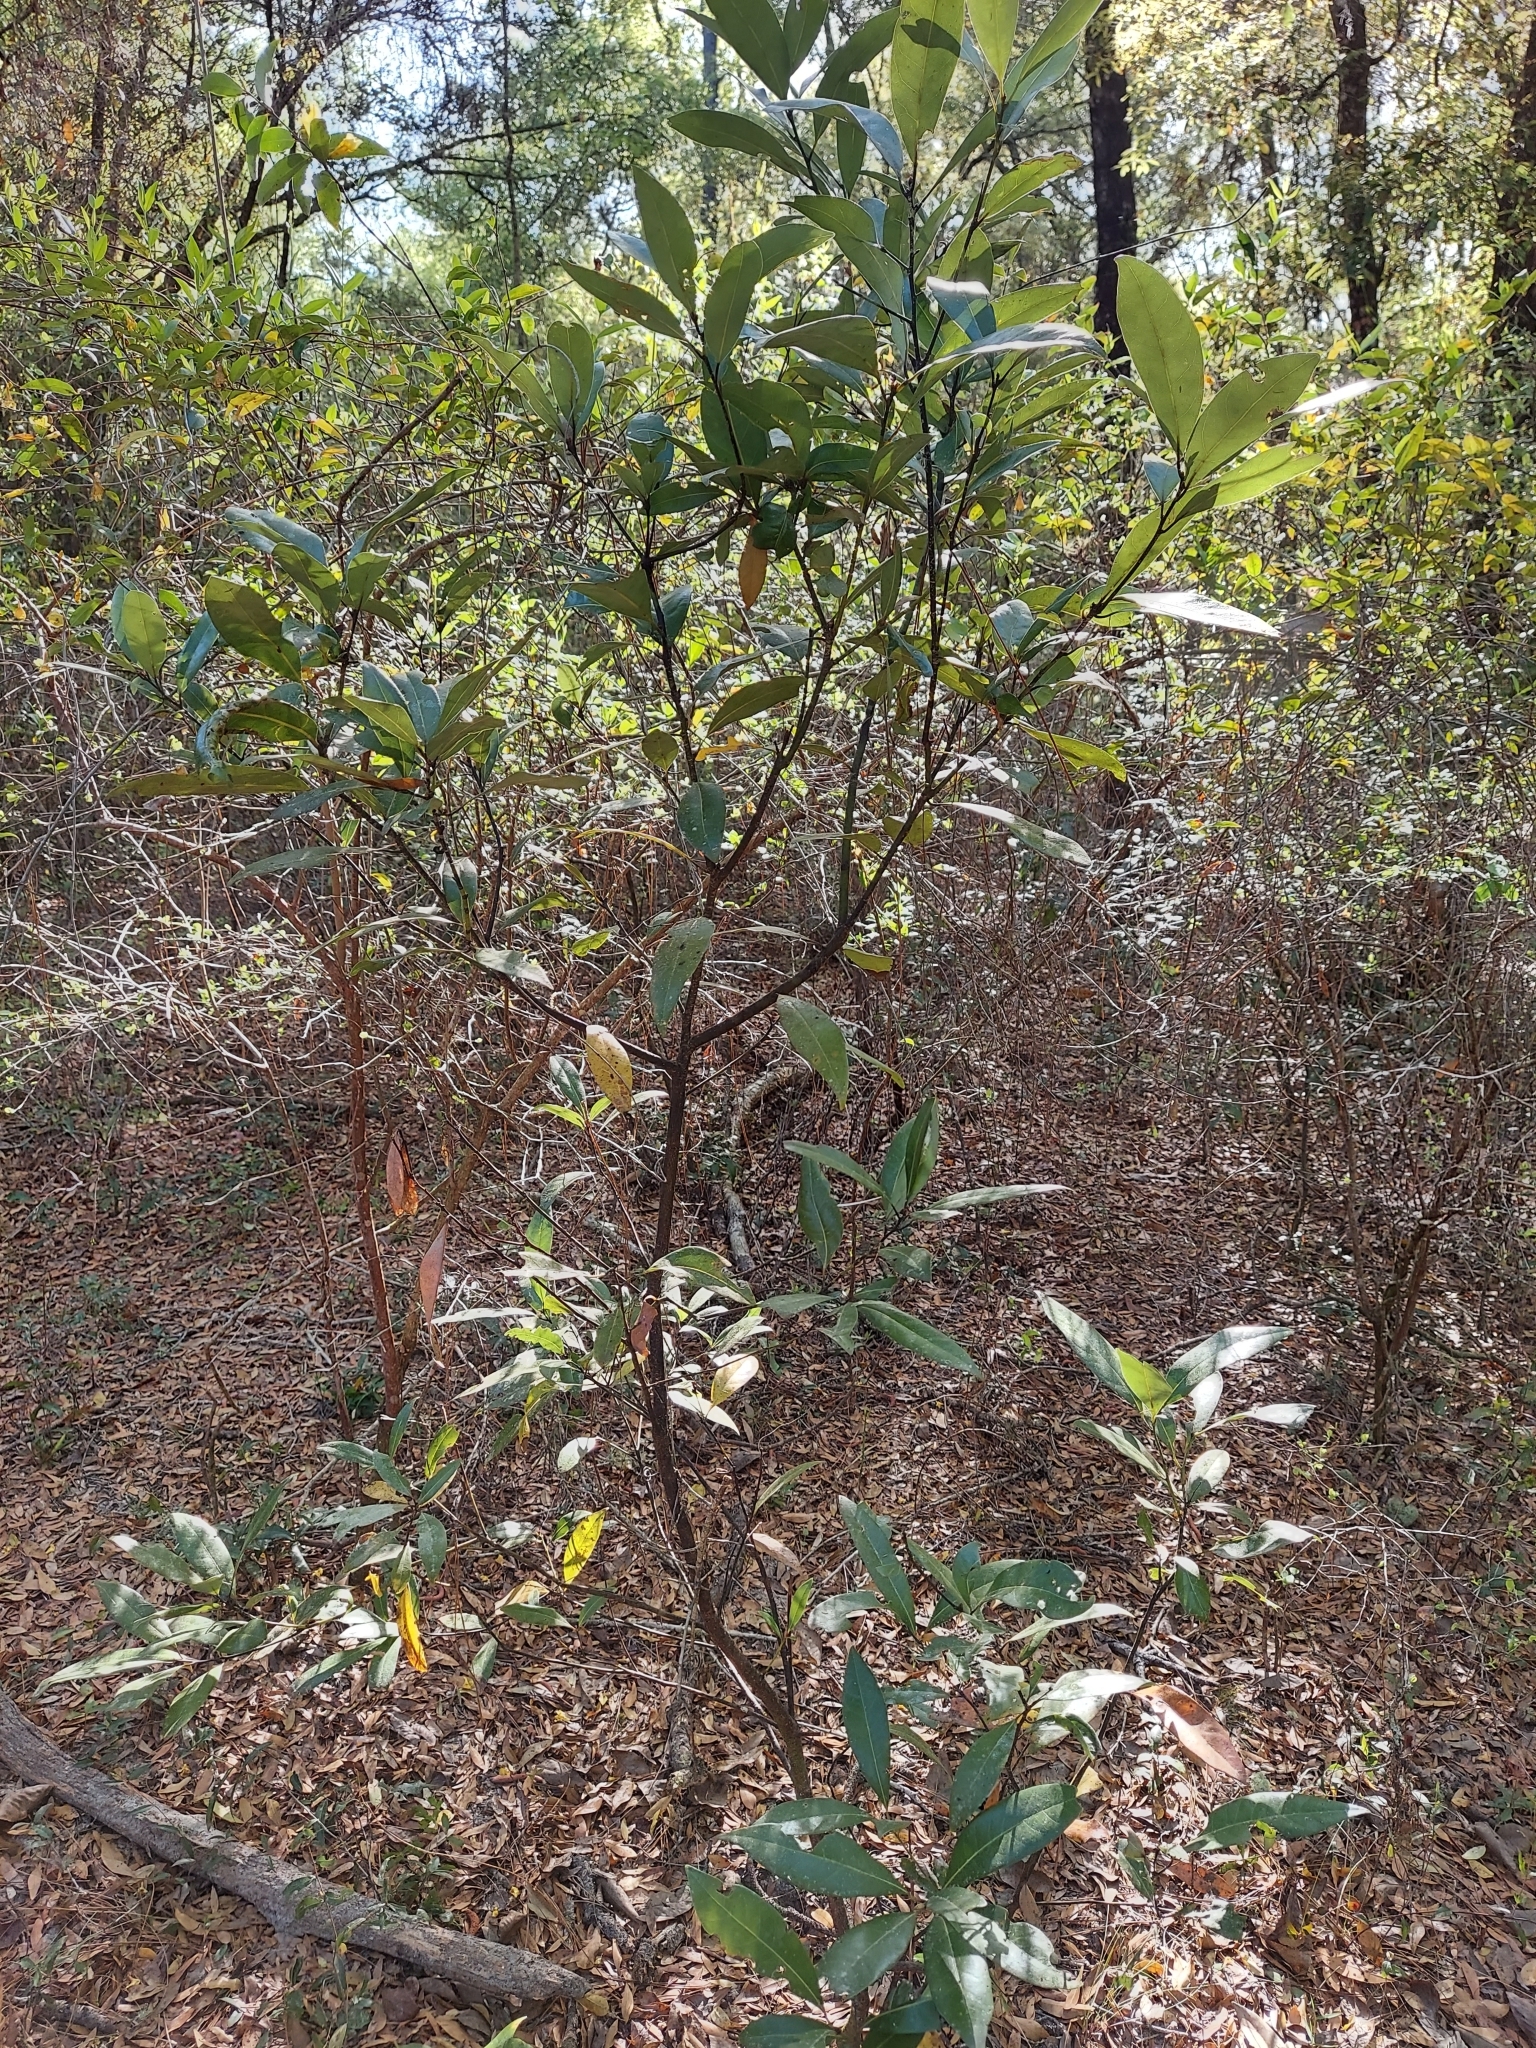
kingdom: Plantae
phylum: Tracheophyta
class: Magnoliopsida
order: Laurales
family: Lauraceae
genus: Persea
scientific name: Persea borbonia
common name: Redbay
